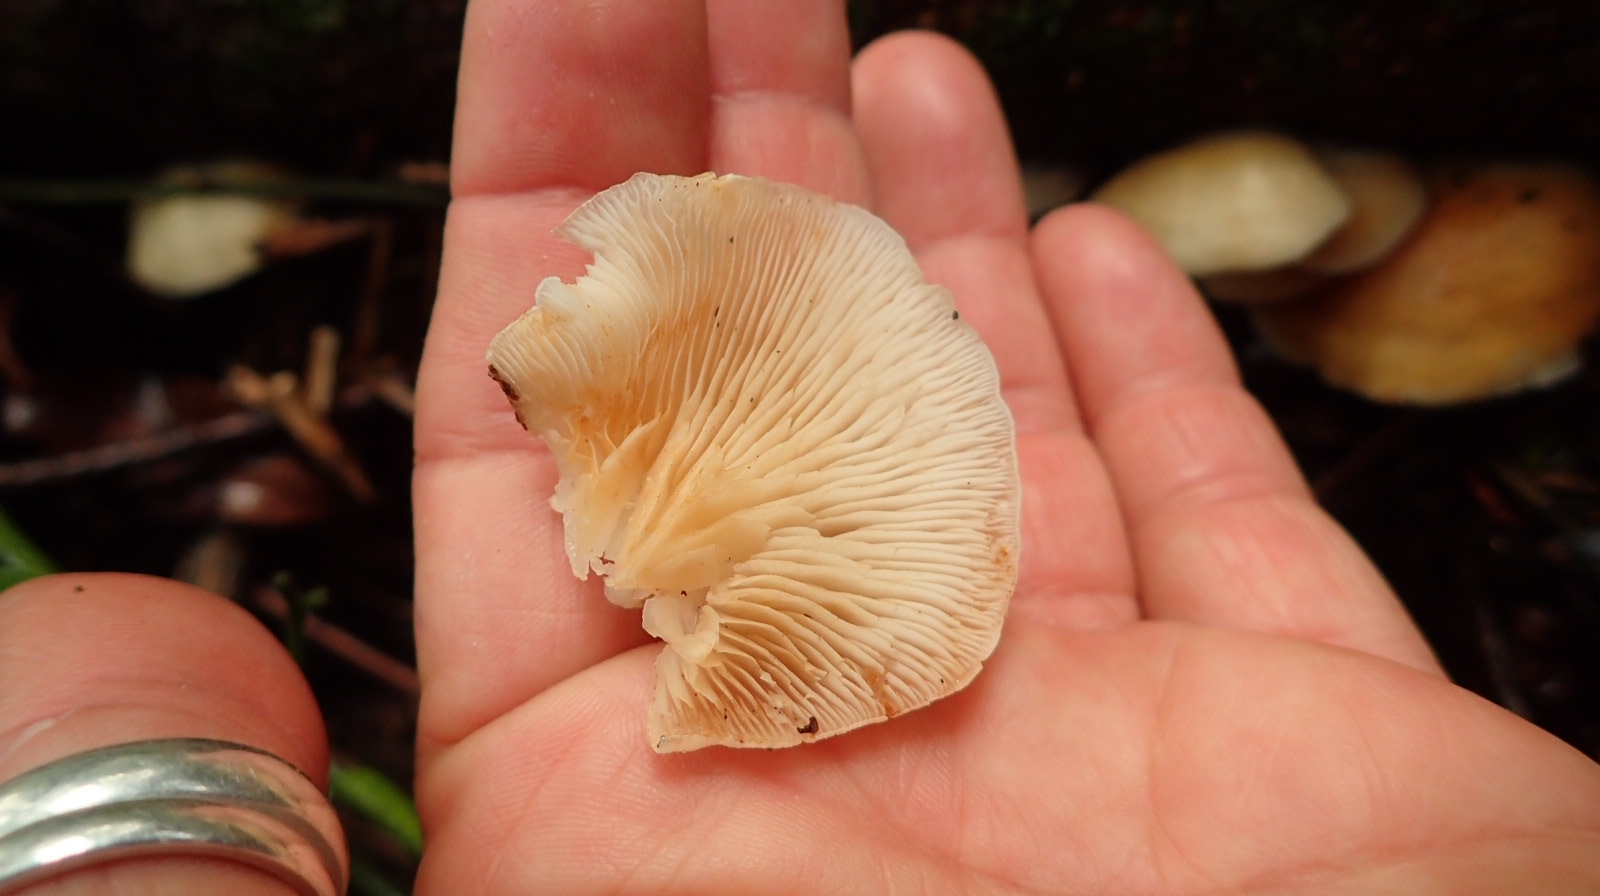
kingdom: Fungi
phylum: Basidiomycota
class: Agaricomycetes
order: Agaricales
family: Crepidotaceae
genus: Crepidotus
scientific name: Crepidotus mollis
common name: Peeling oysterling
